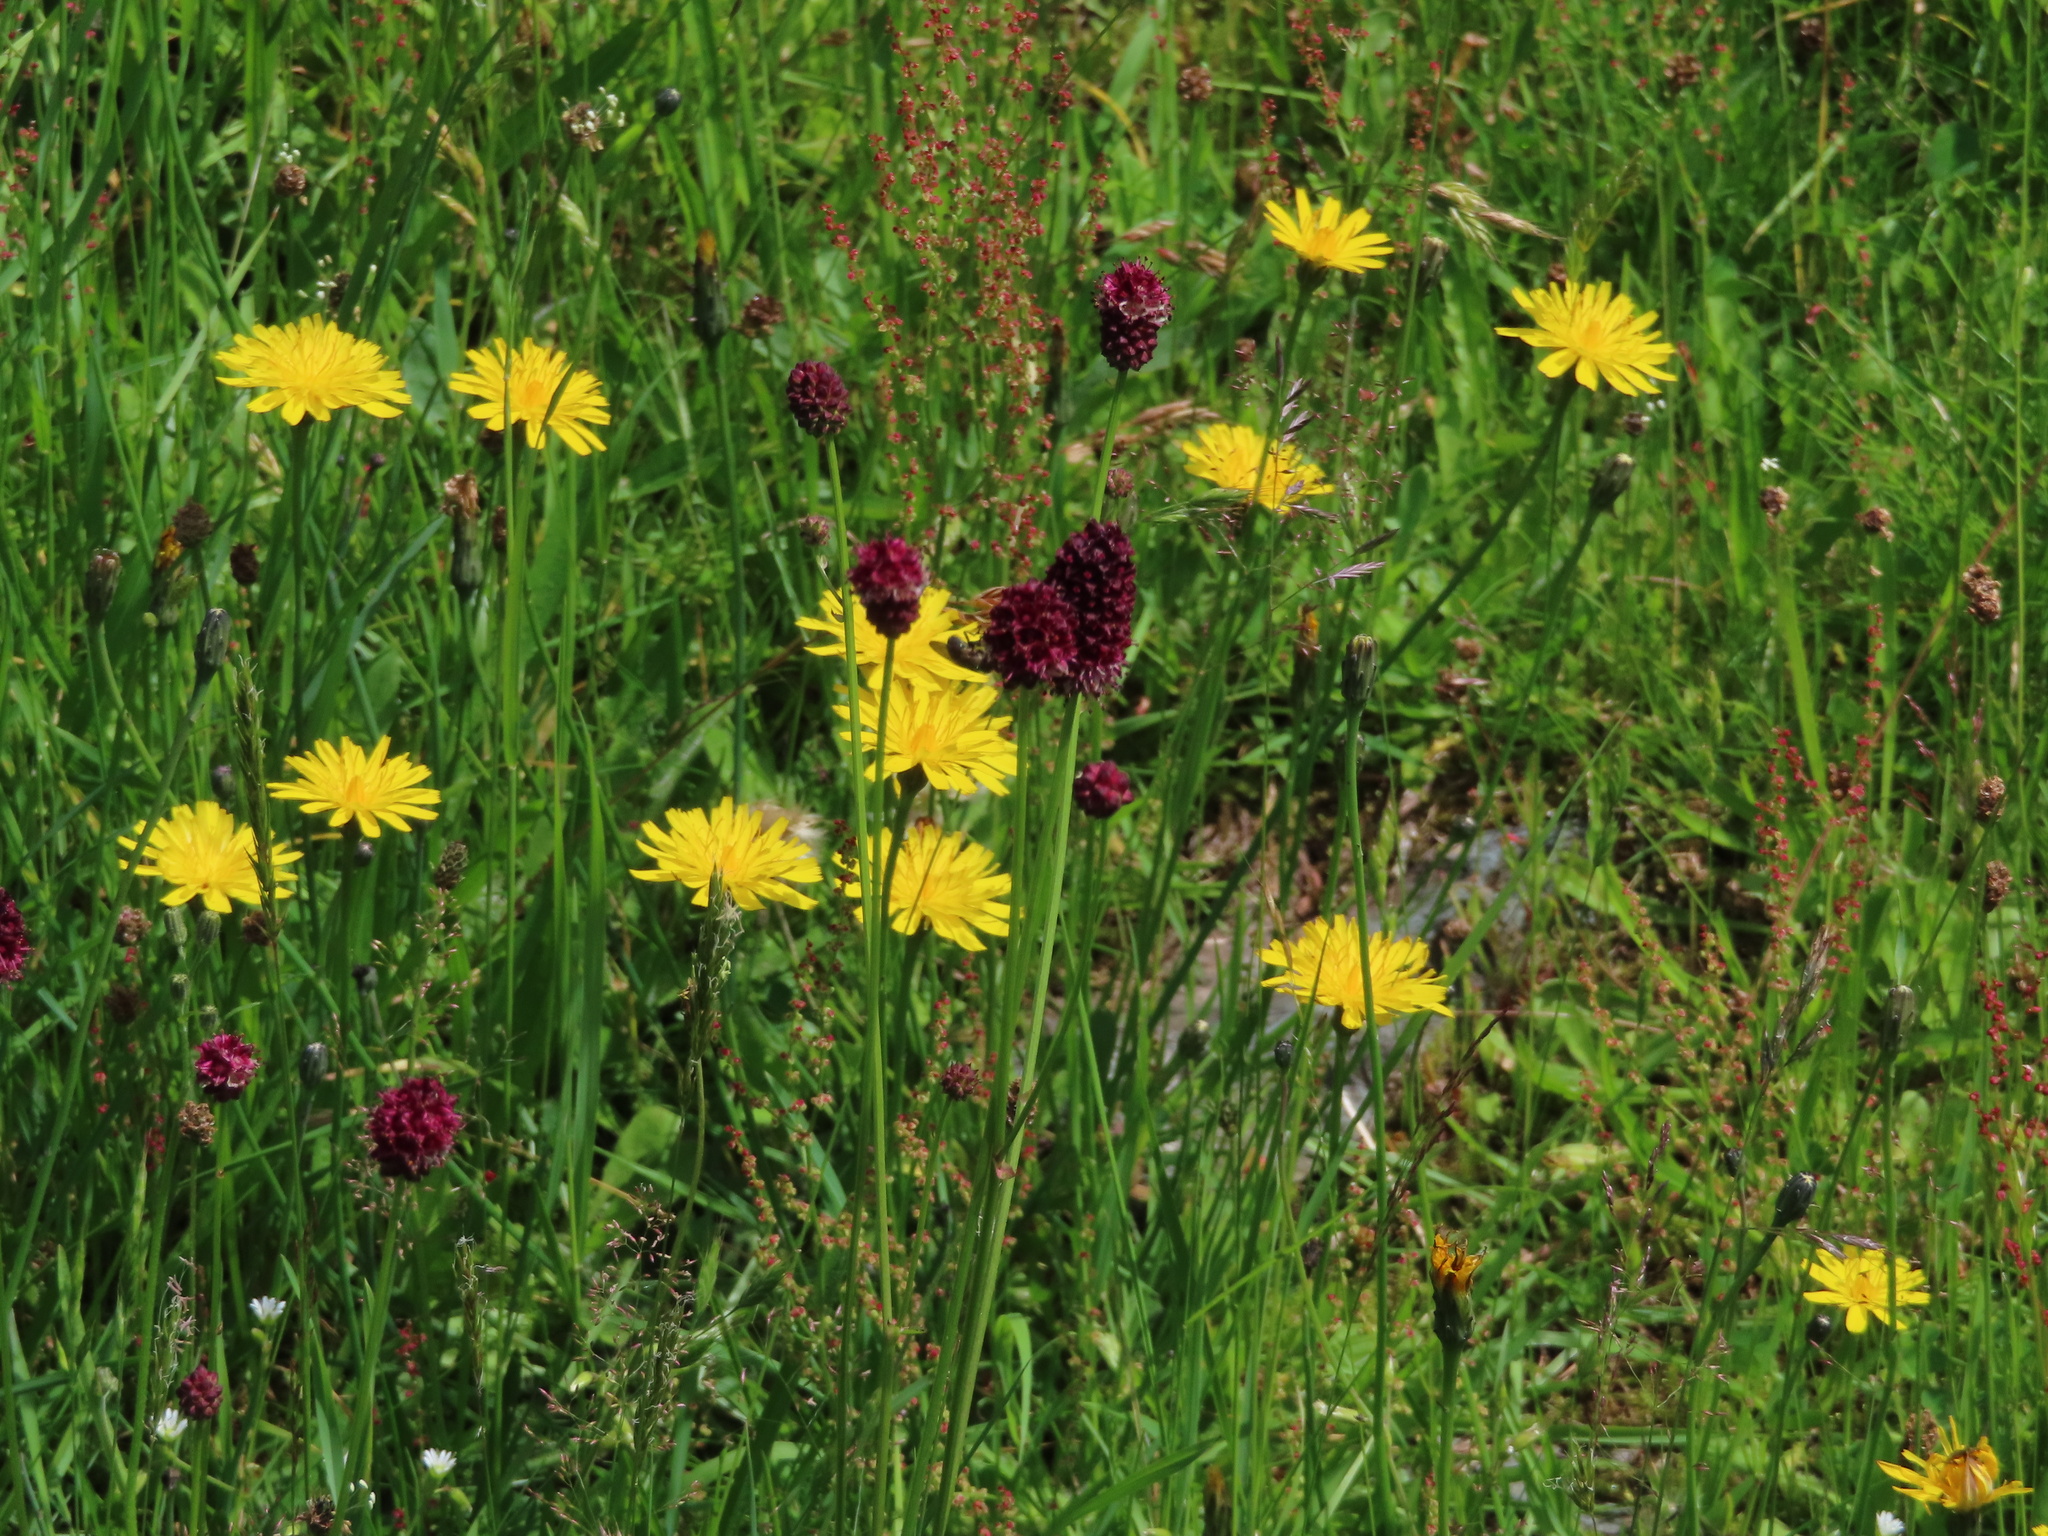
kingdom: Plantae
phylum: Tracheophyta
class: Magnoliopsida
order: Rosales
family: Rosaceae
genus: Sanguisorba
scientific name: Sanguisorba officinalis
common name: Great burnet
